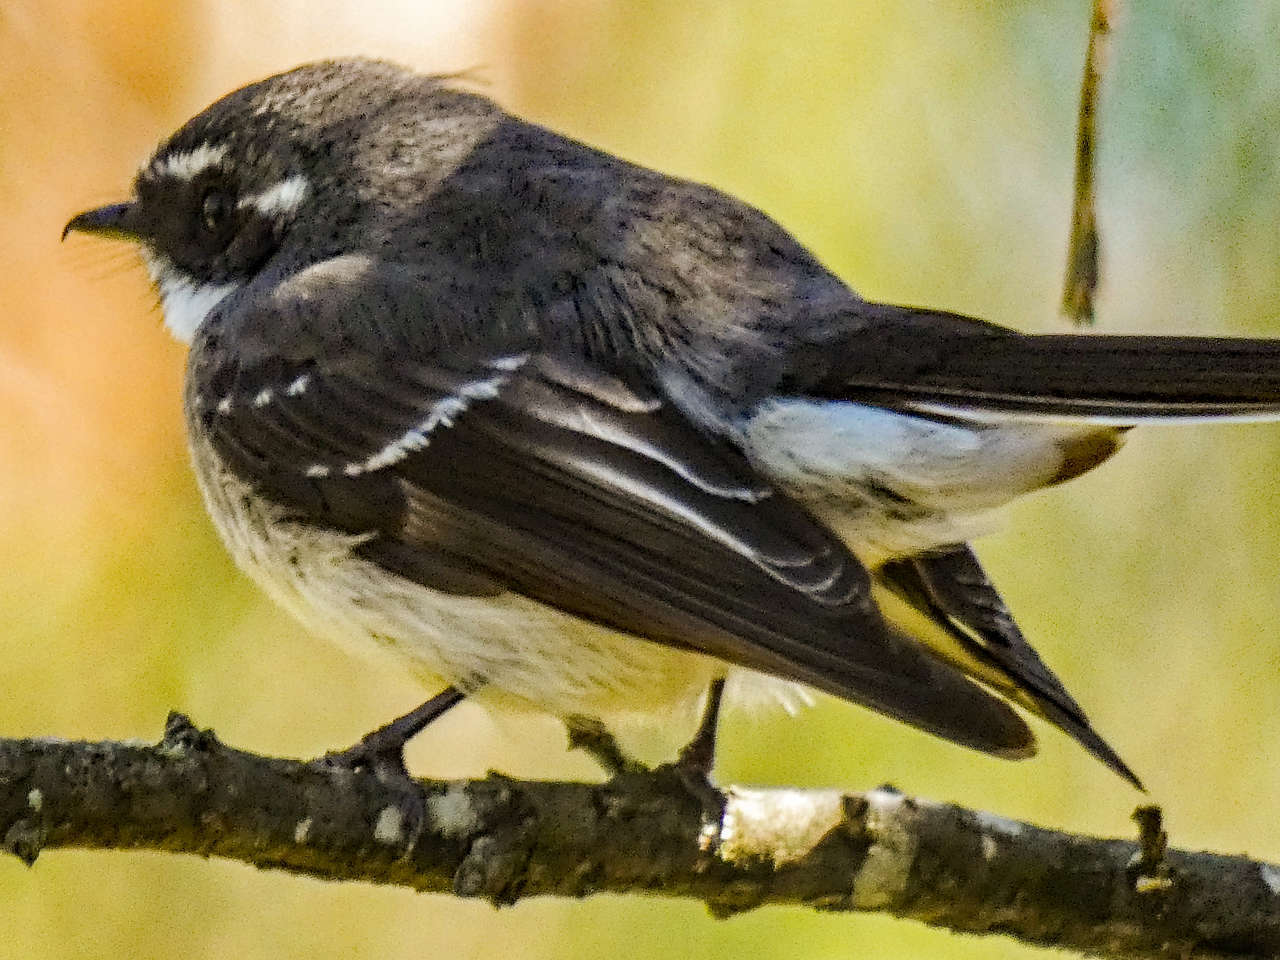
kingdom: Animalia
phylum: Chordata
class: Aves
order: Passeriformes
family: Rhipiduridae
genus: Rhipidura
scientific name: Rhipidura albiscapa
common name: Grey fantail
